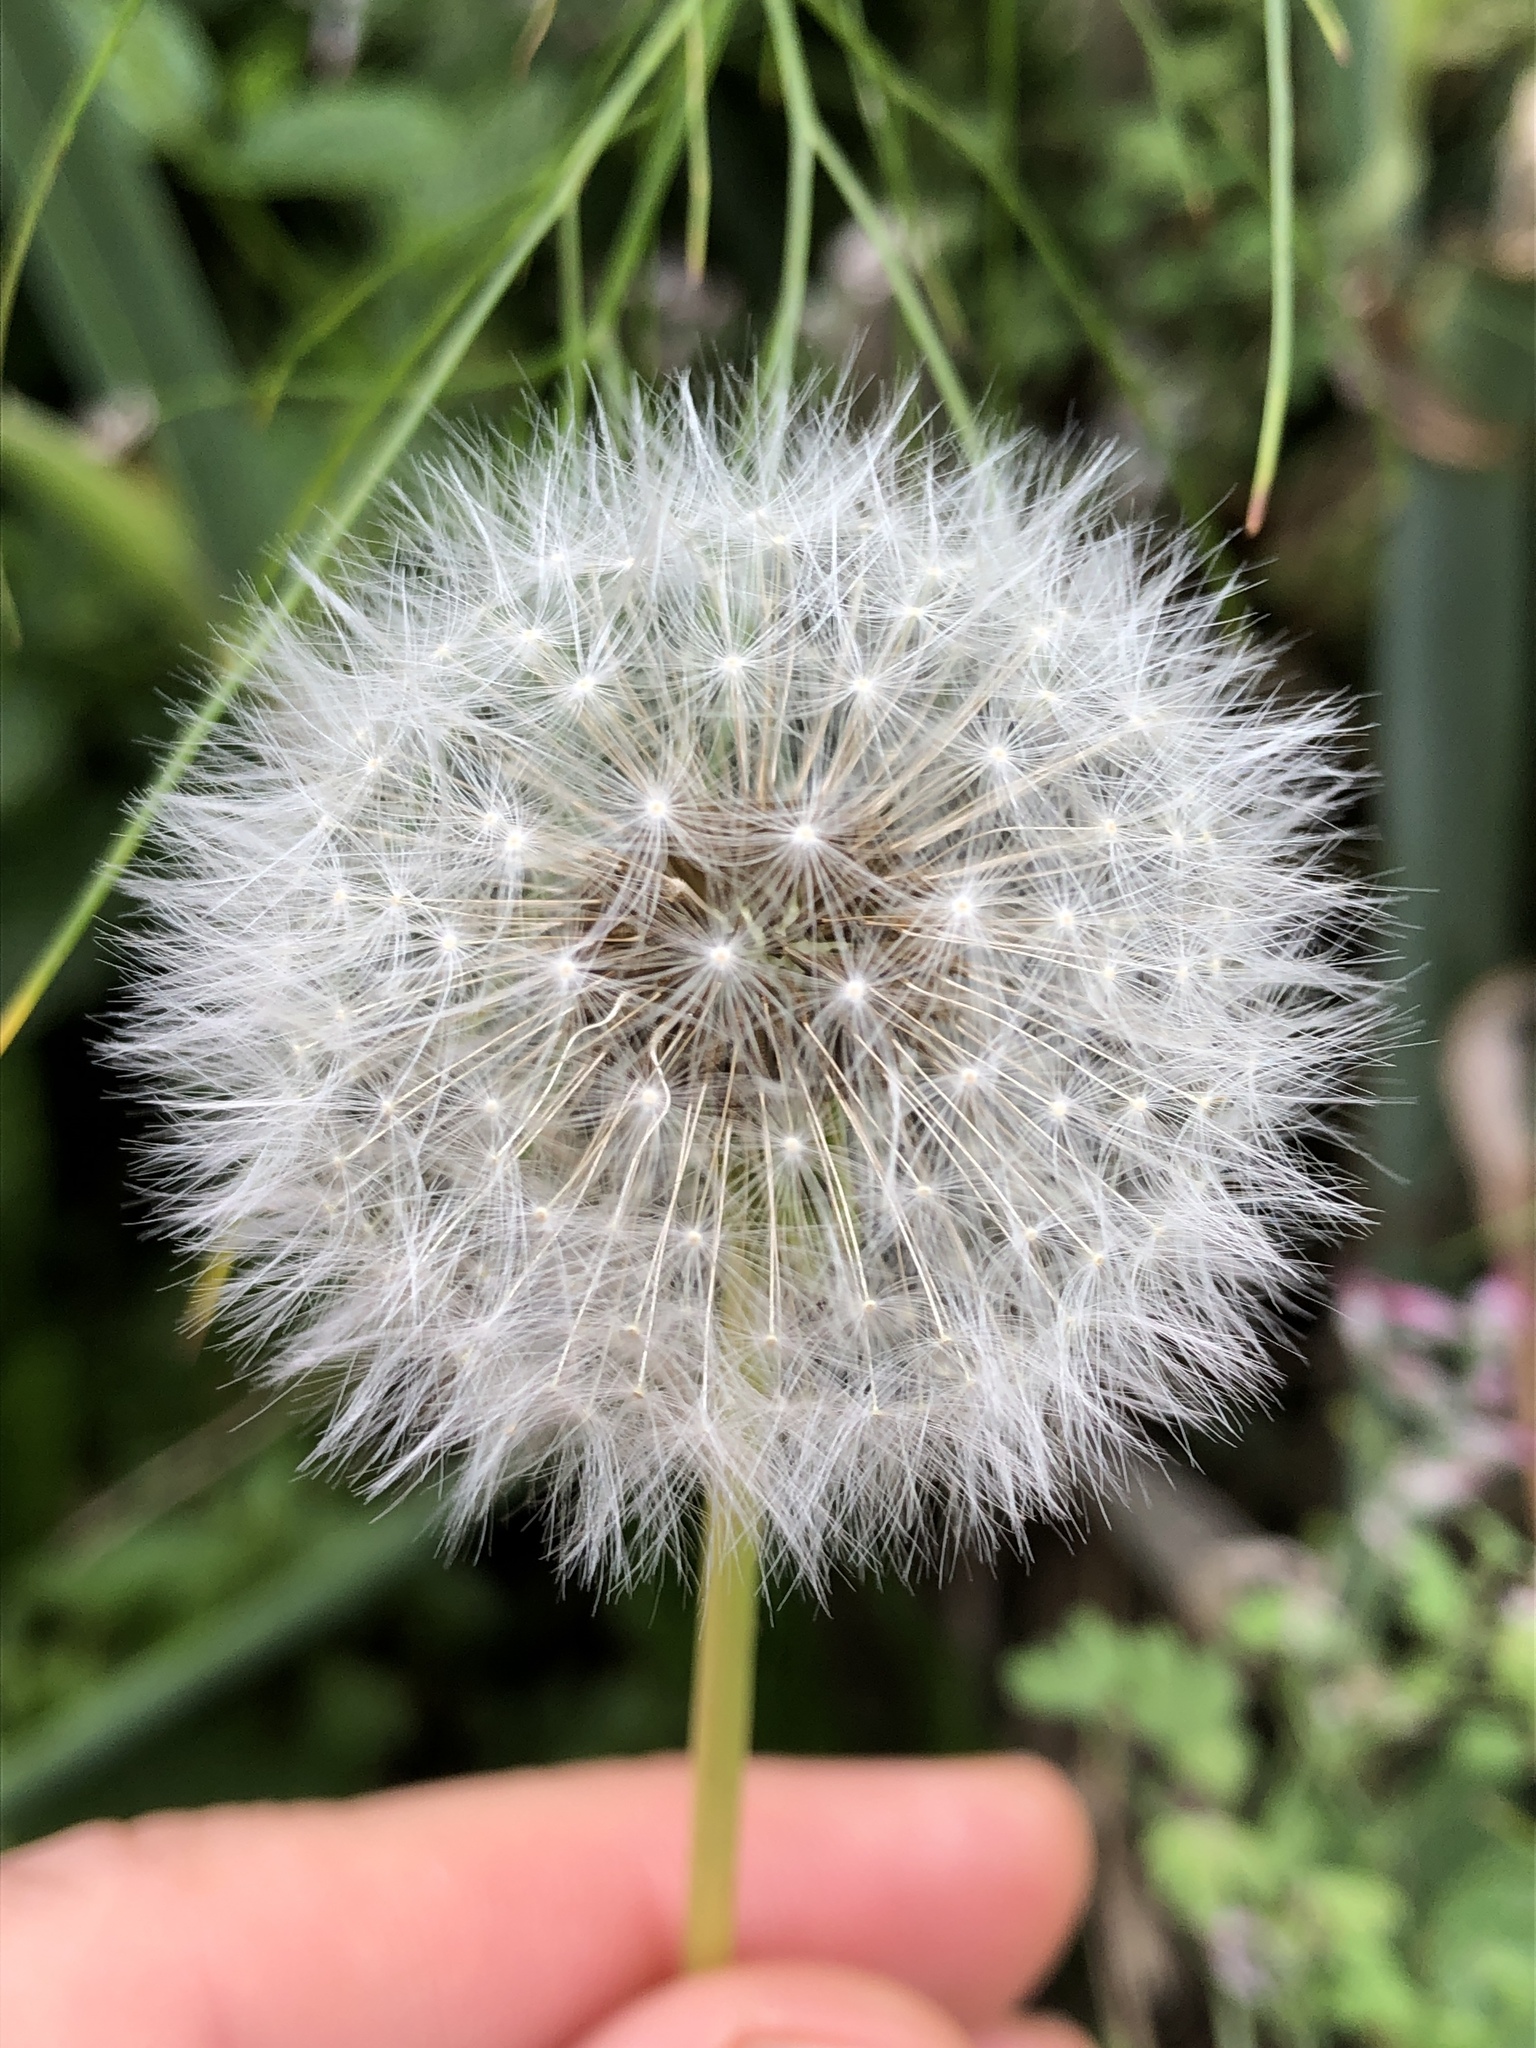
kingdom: Plantae
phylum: Tracheophyta
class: Magnoliopsida
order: Asterales
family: Asteraceae
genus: Taraxacum
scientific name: Taraxacum officinale
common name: Common dandelion
